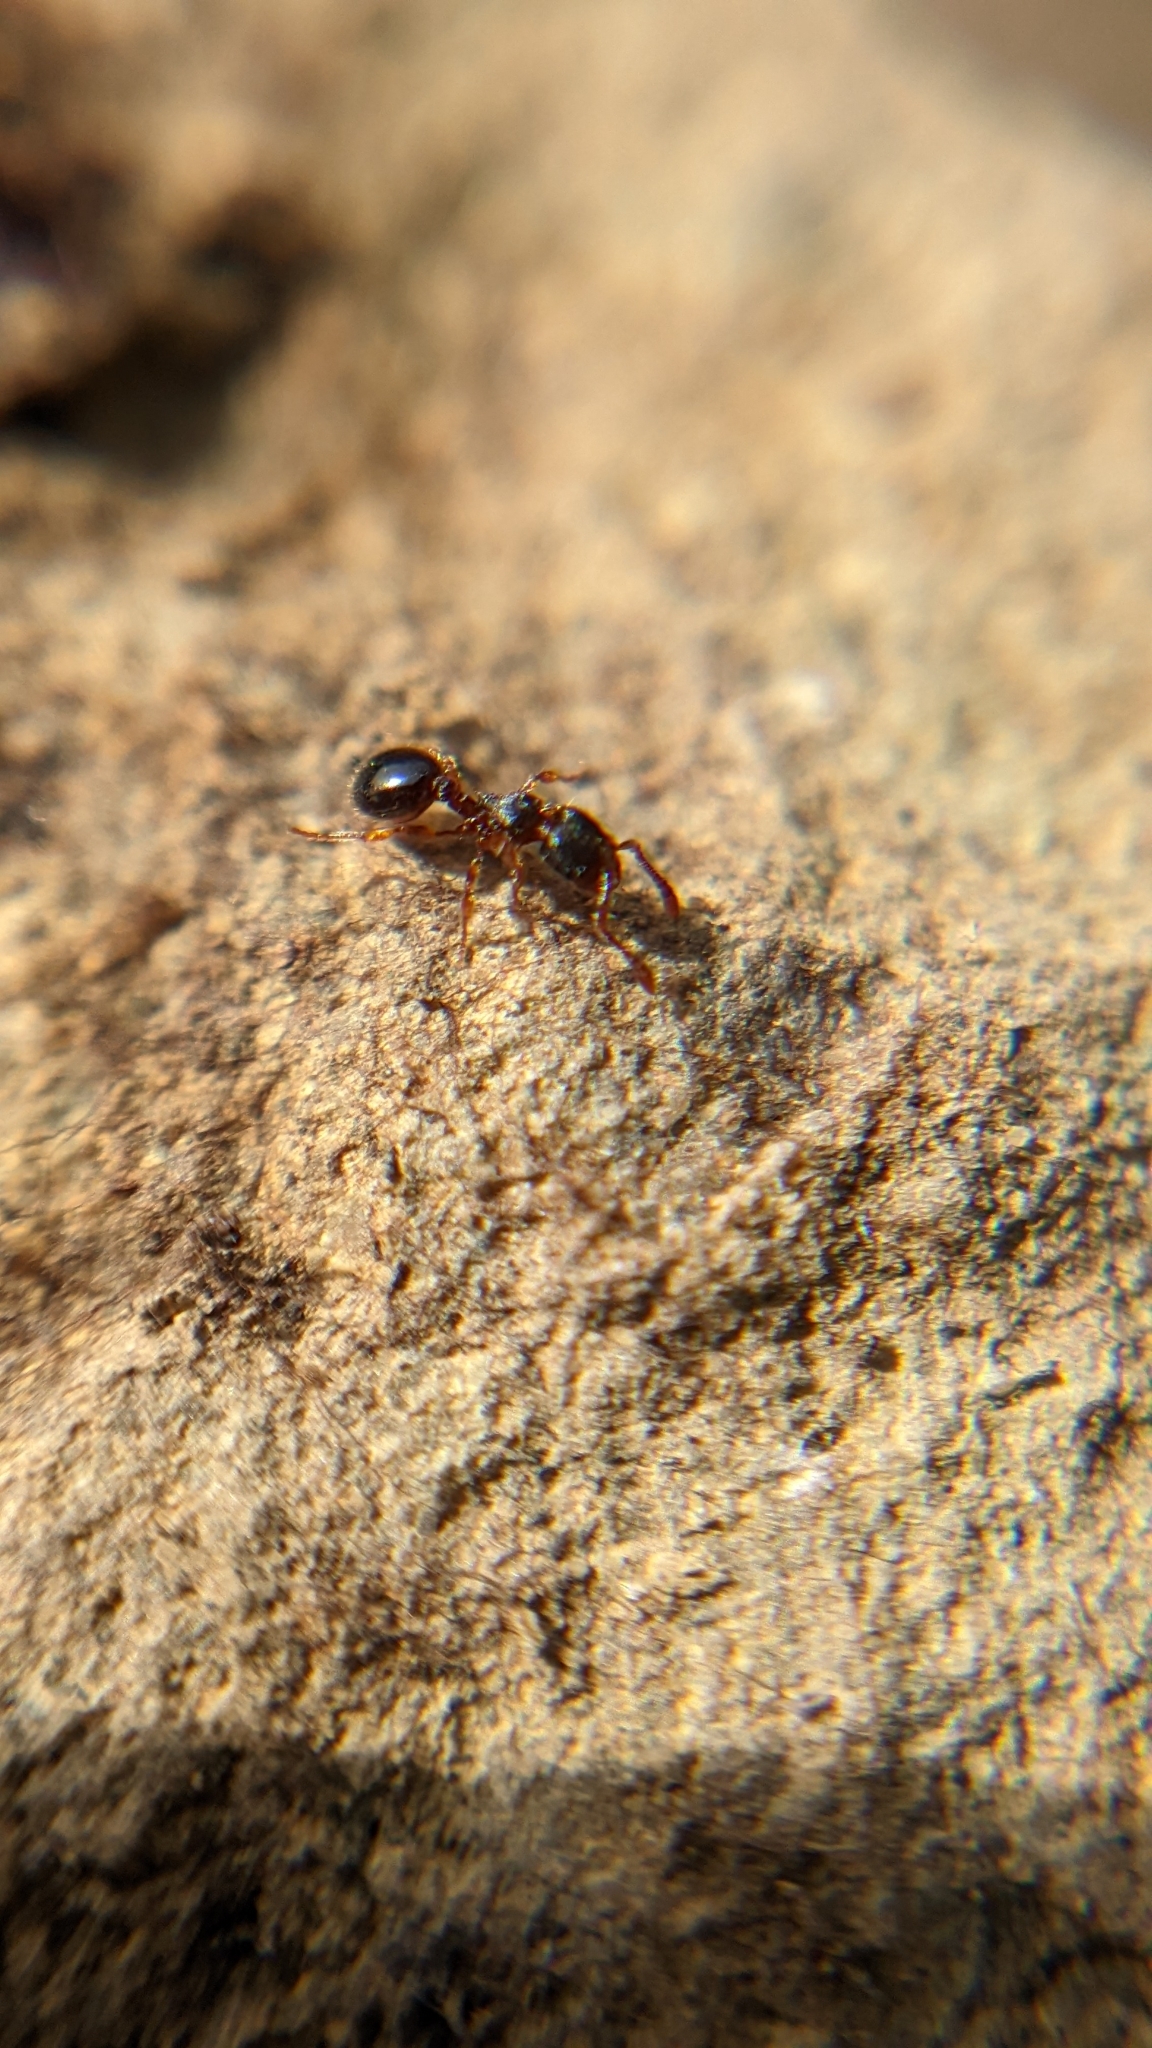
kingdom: Animalia
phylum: Arthropoda
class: Insecta
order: Hymenoptera
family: Formicidae
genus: Myrmecina
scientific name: Myrmecina graminicola
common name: Grass ant
